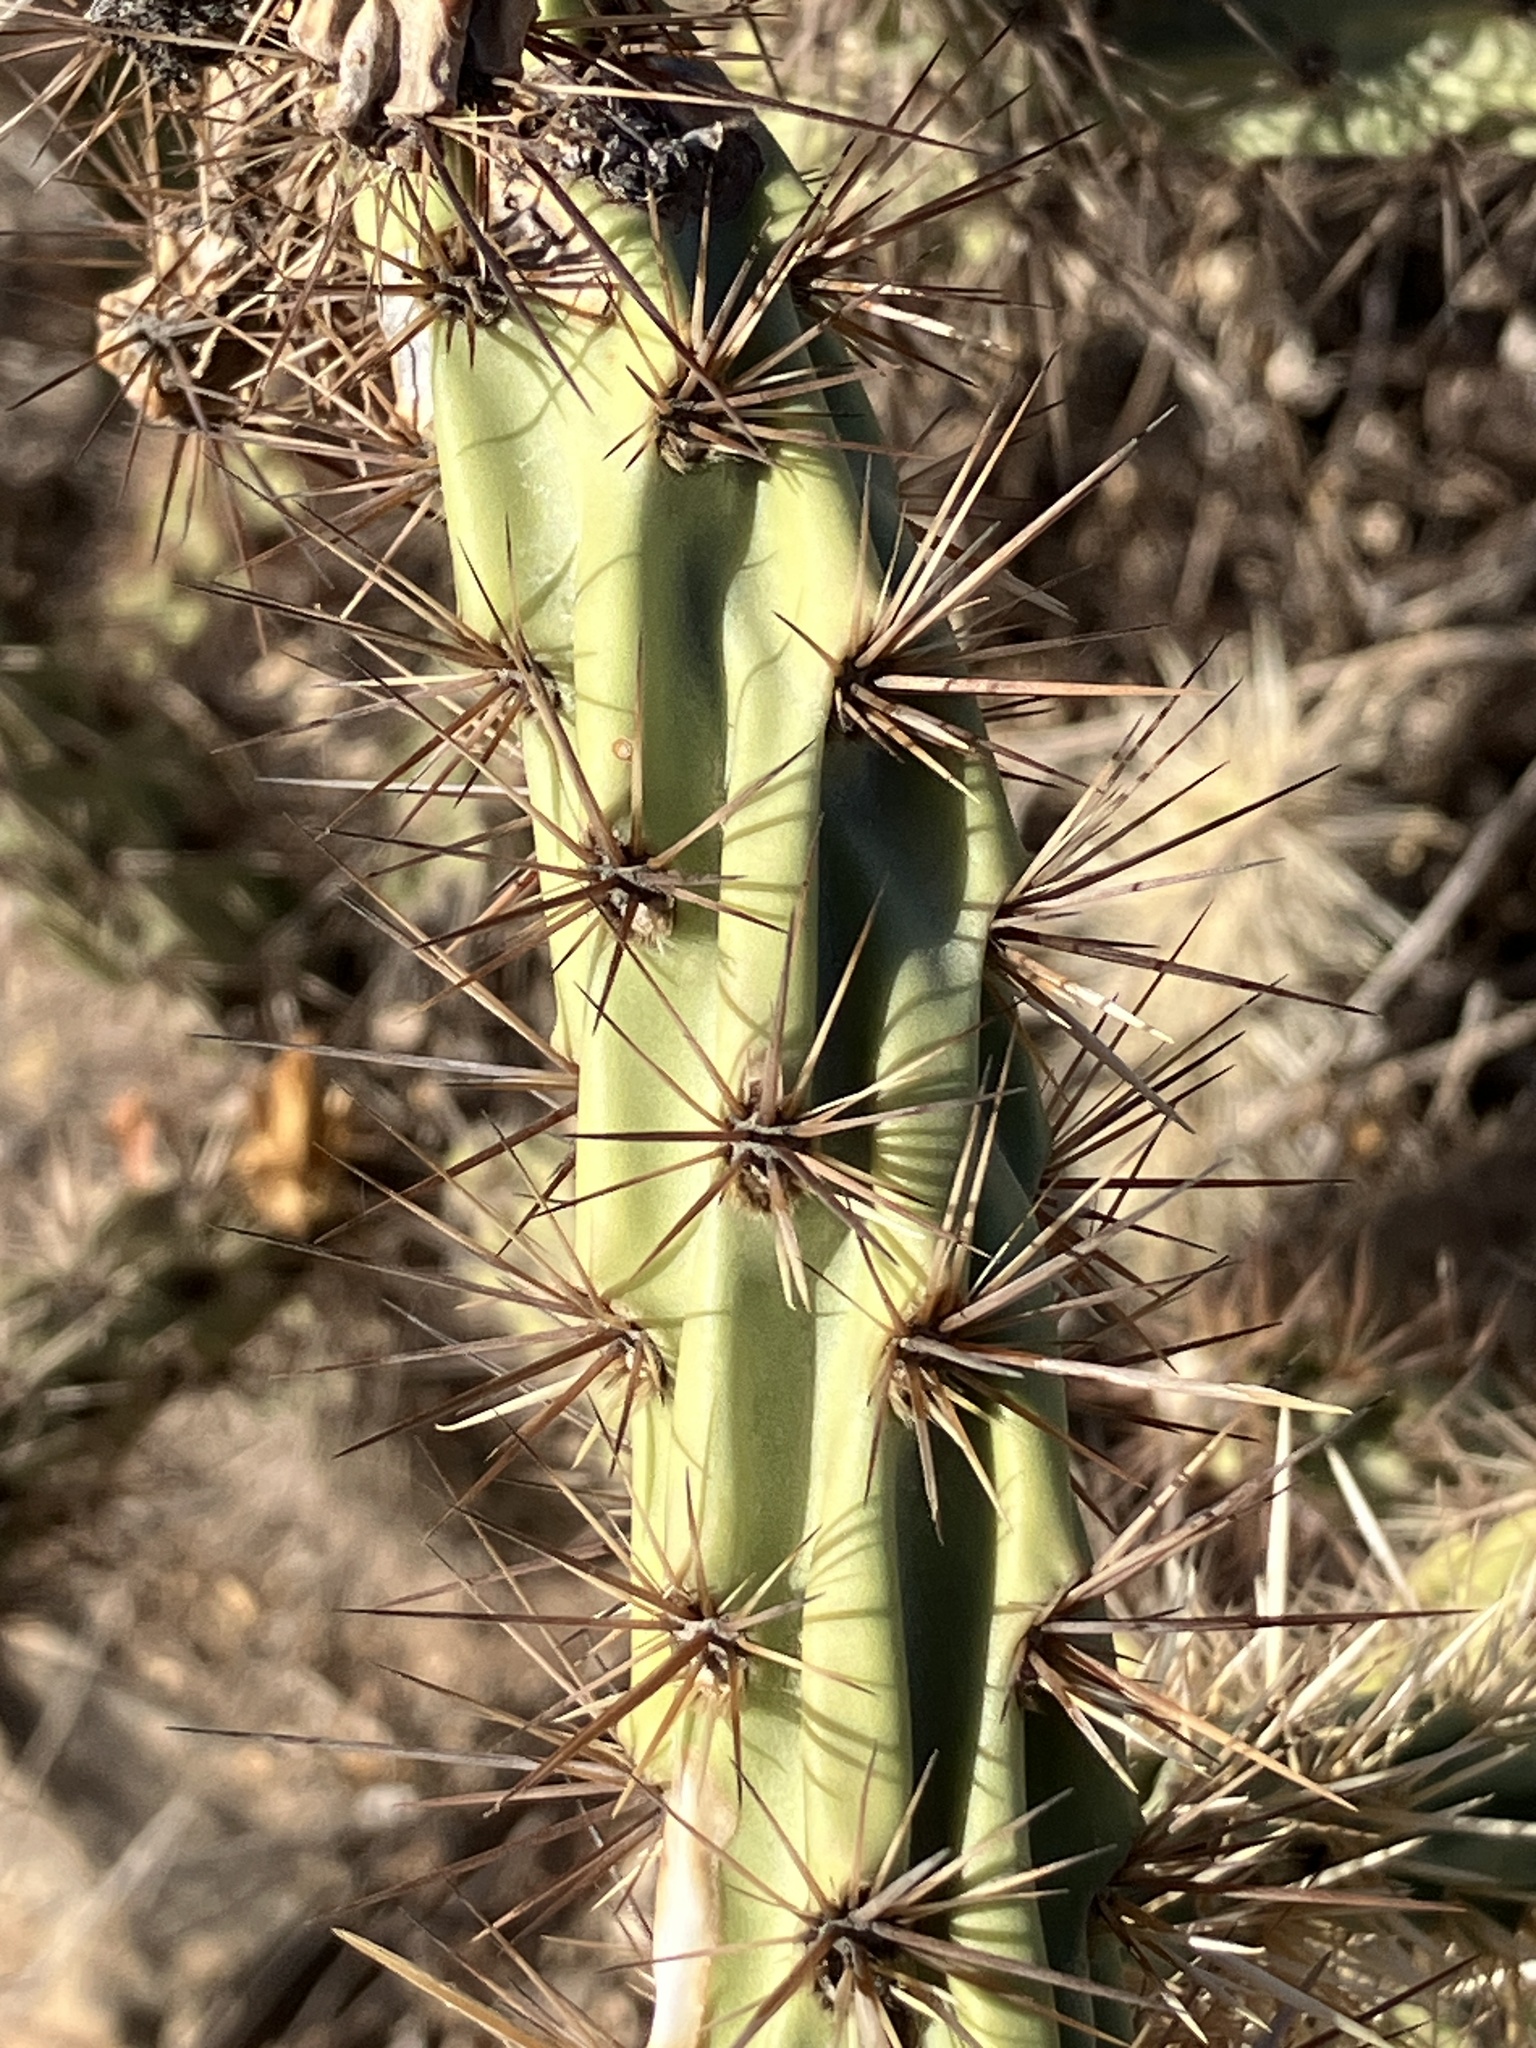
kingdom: Plantae
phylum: Tracheophyta
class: Magnoliopsida
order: Caryophyllales
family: Cactaceae
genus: Cylindropuntia
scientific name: Cylindropuntia acanthocarpa
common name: Buckhorn cholla
